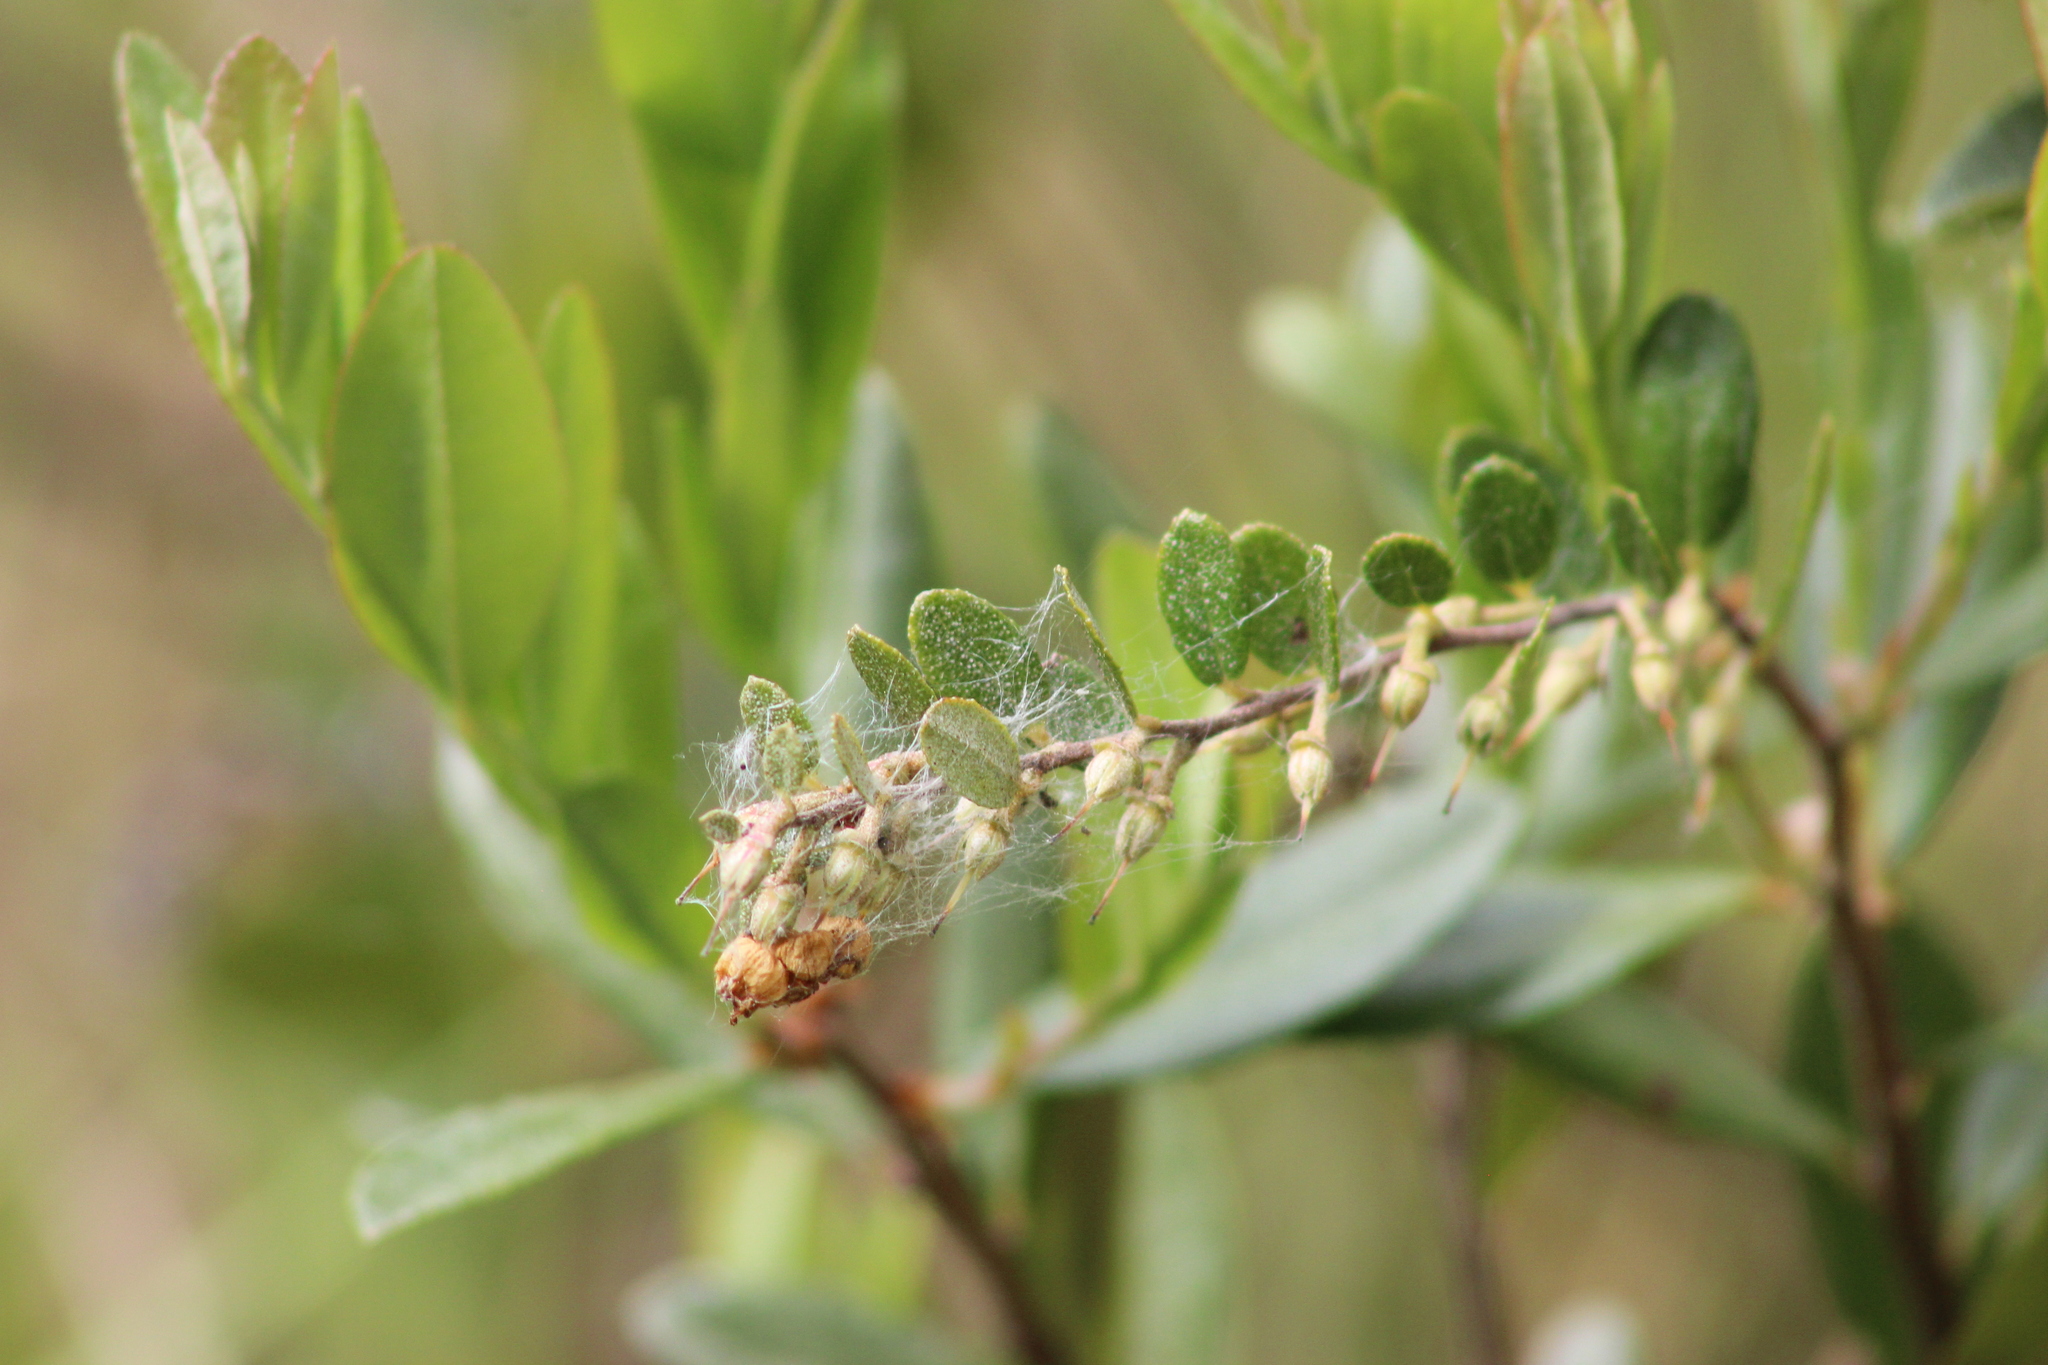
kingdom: Plantae
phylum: Tracheophyta
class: Magnoliopsida
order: Ericales
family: Ericaceae
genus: Chamaedaphne
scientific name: Chamaedaphne calyculata
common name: Leatherleaf
